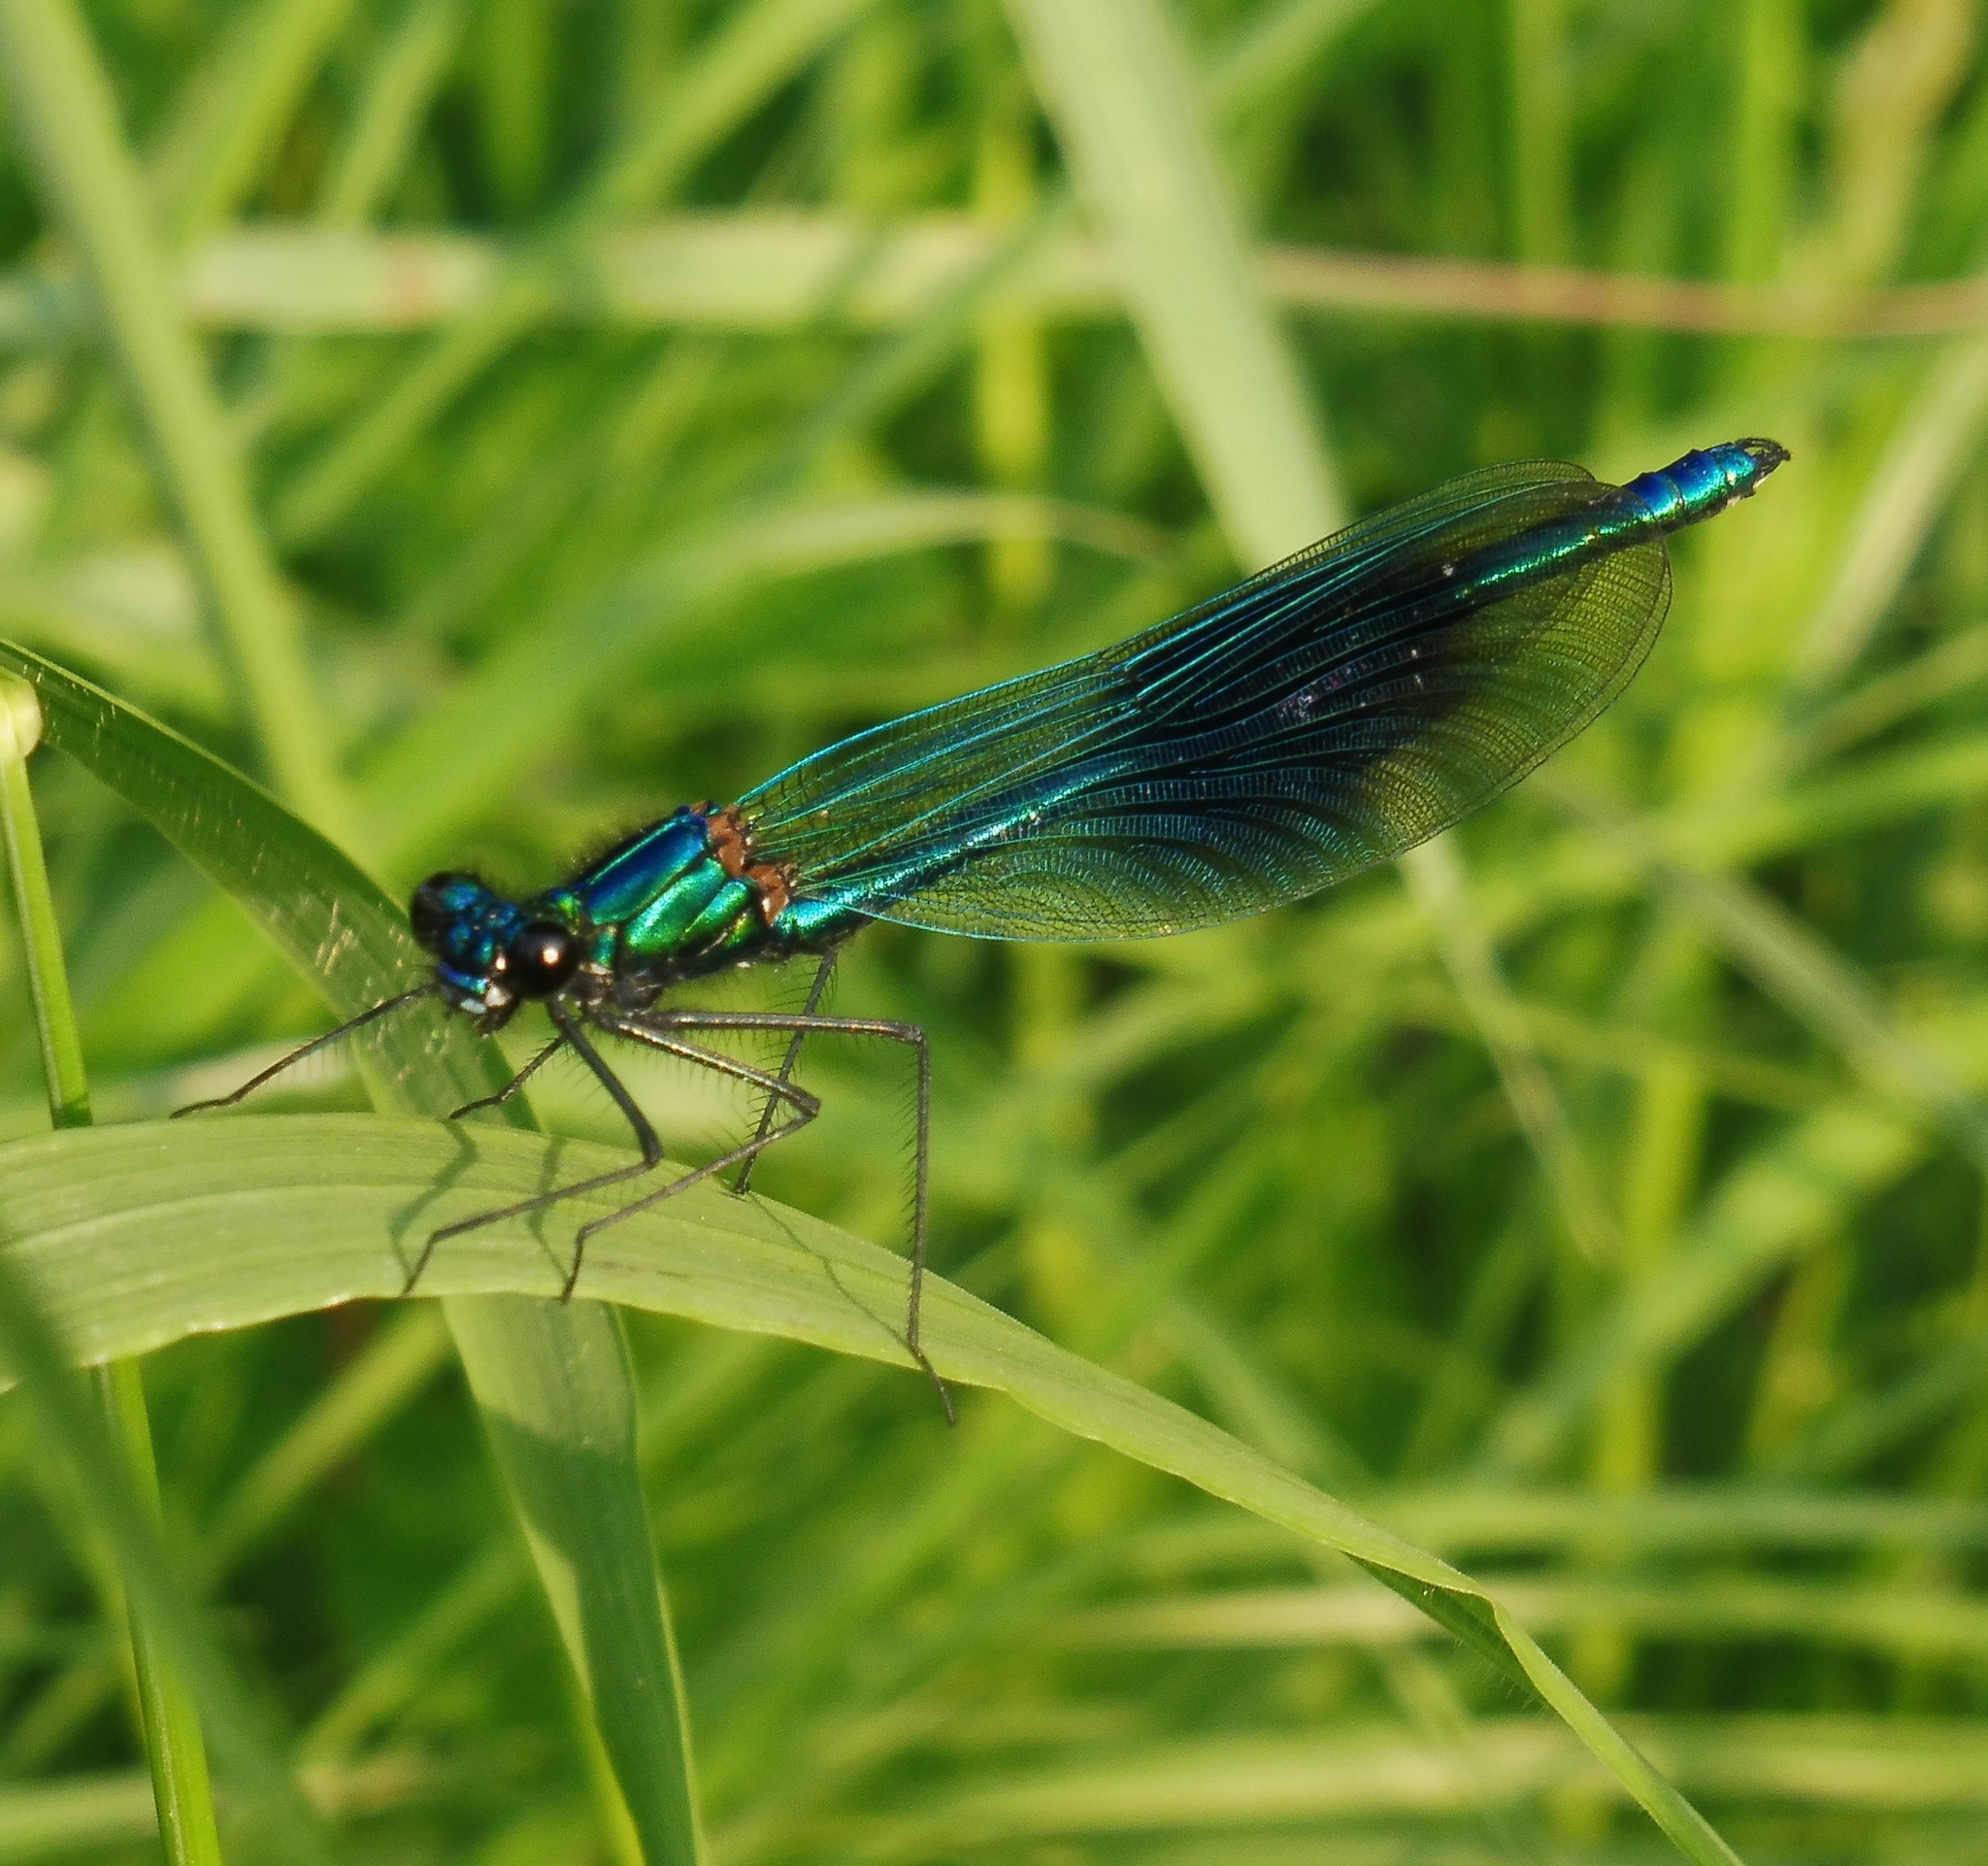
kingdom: Animalia
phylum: Arthropoda
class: Insecta
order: Odonata
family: Calopterygidae
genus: Calopteryx
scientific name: Calopteryx splendens
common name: Banded demoiselle
